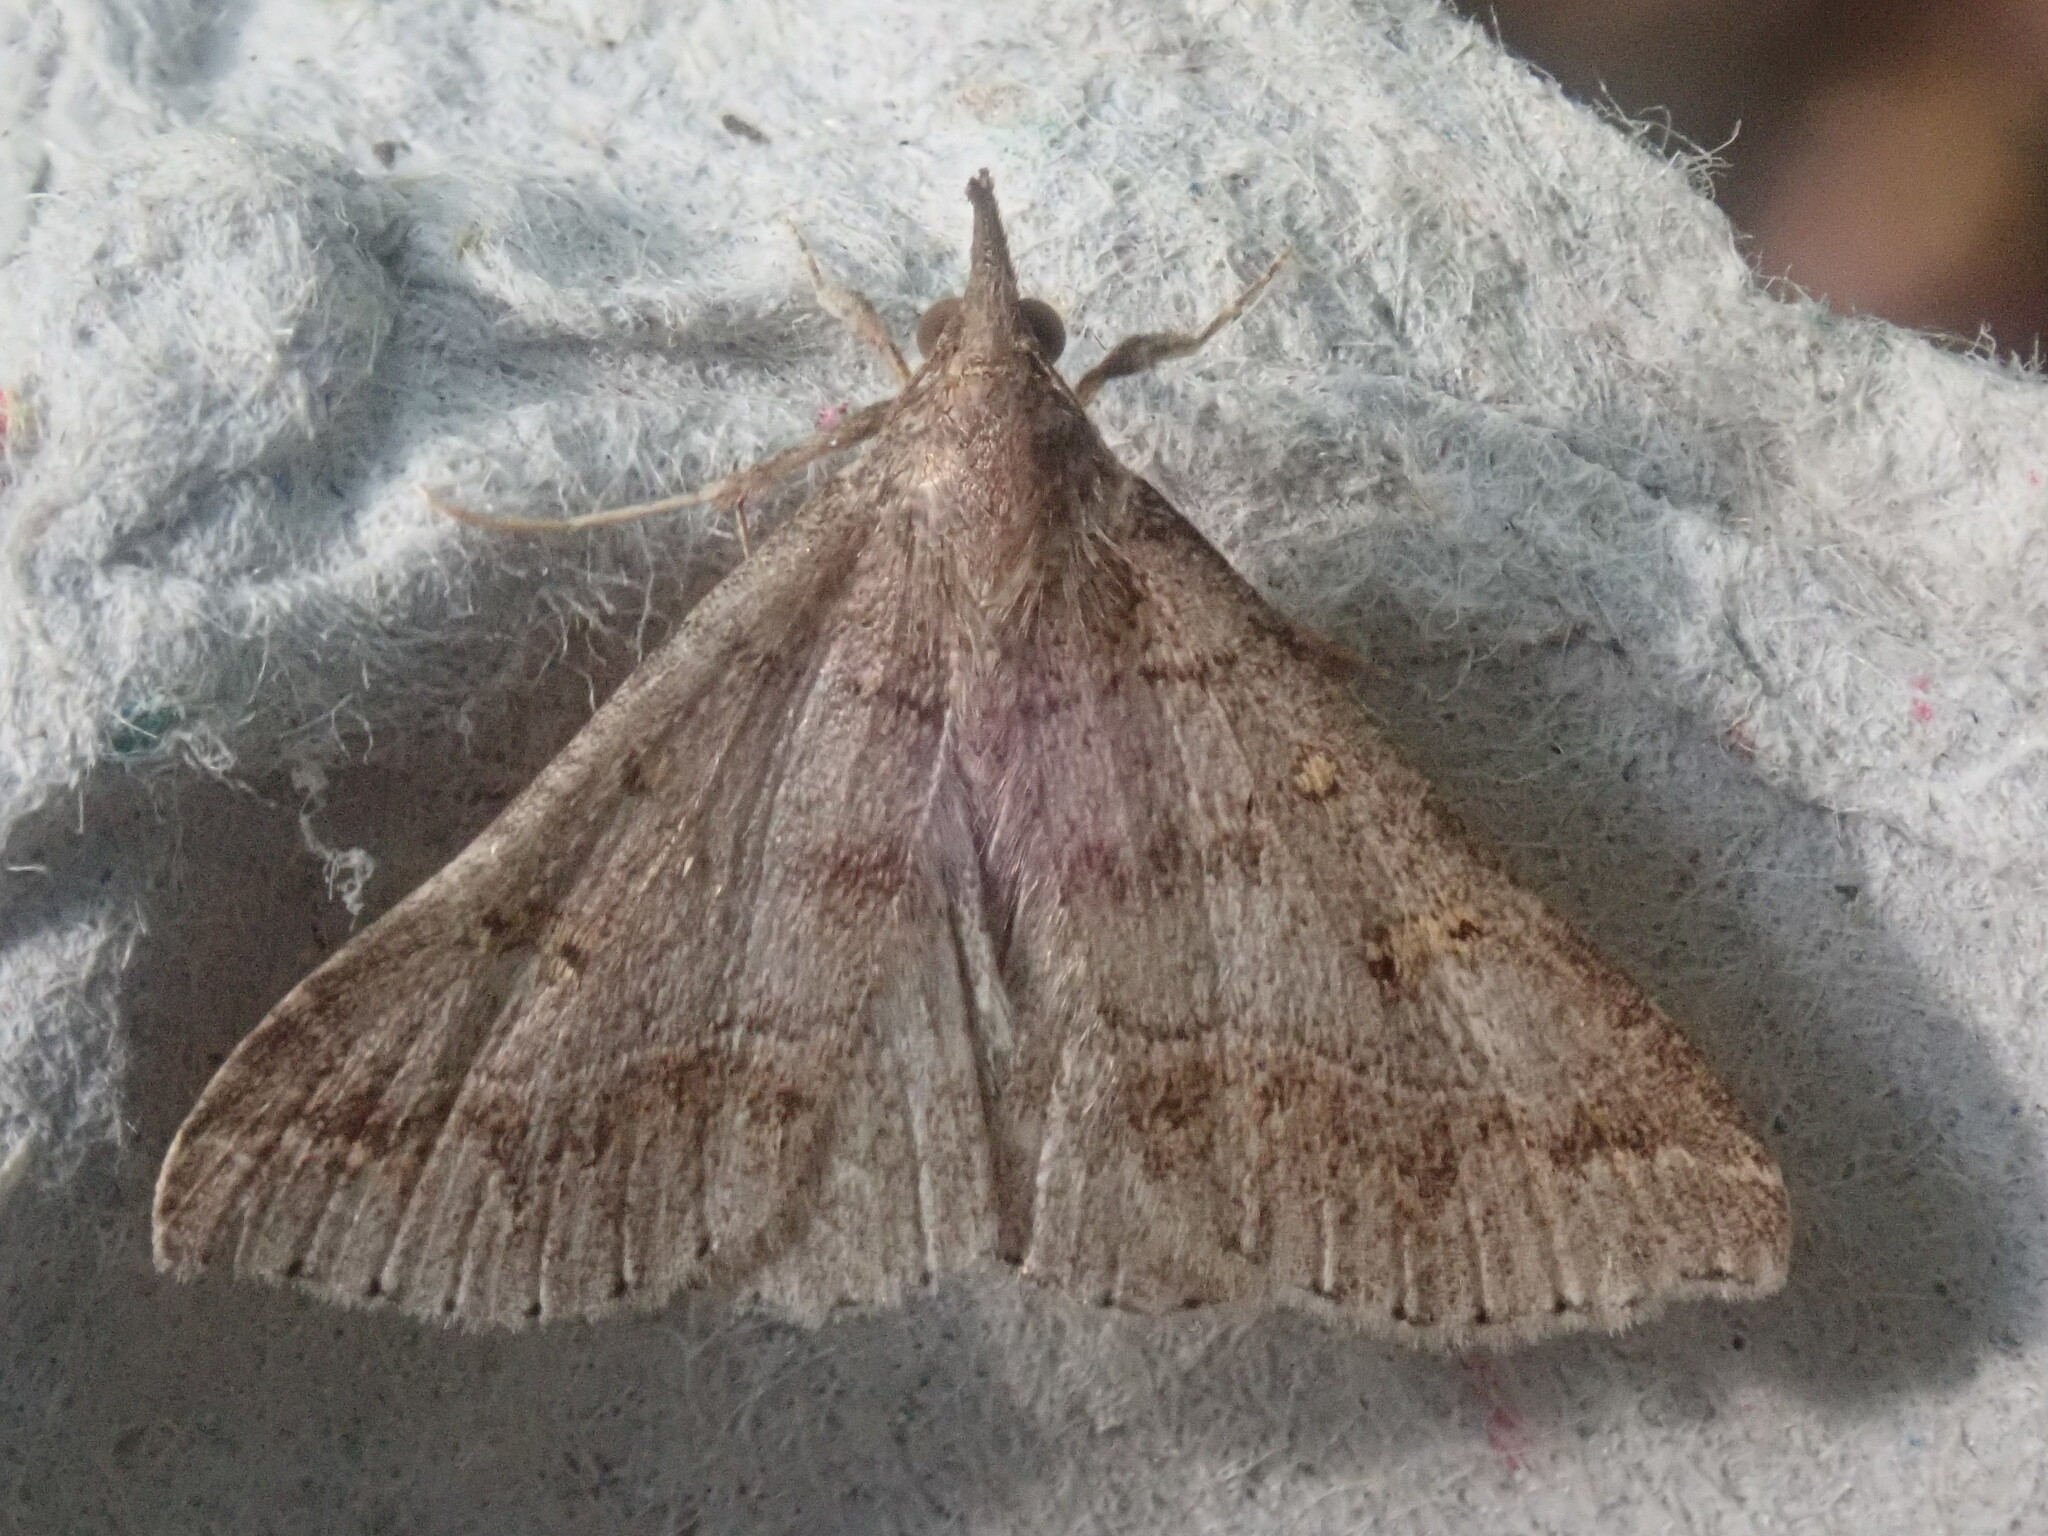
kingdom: Animalia
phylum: Arthropoda
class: Insecta
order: Lepidoptera
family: Erebidae
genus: Renia
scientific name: Renia flavipunctalis
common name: Yellow-spotted renia moth
